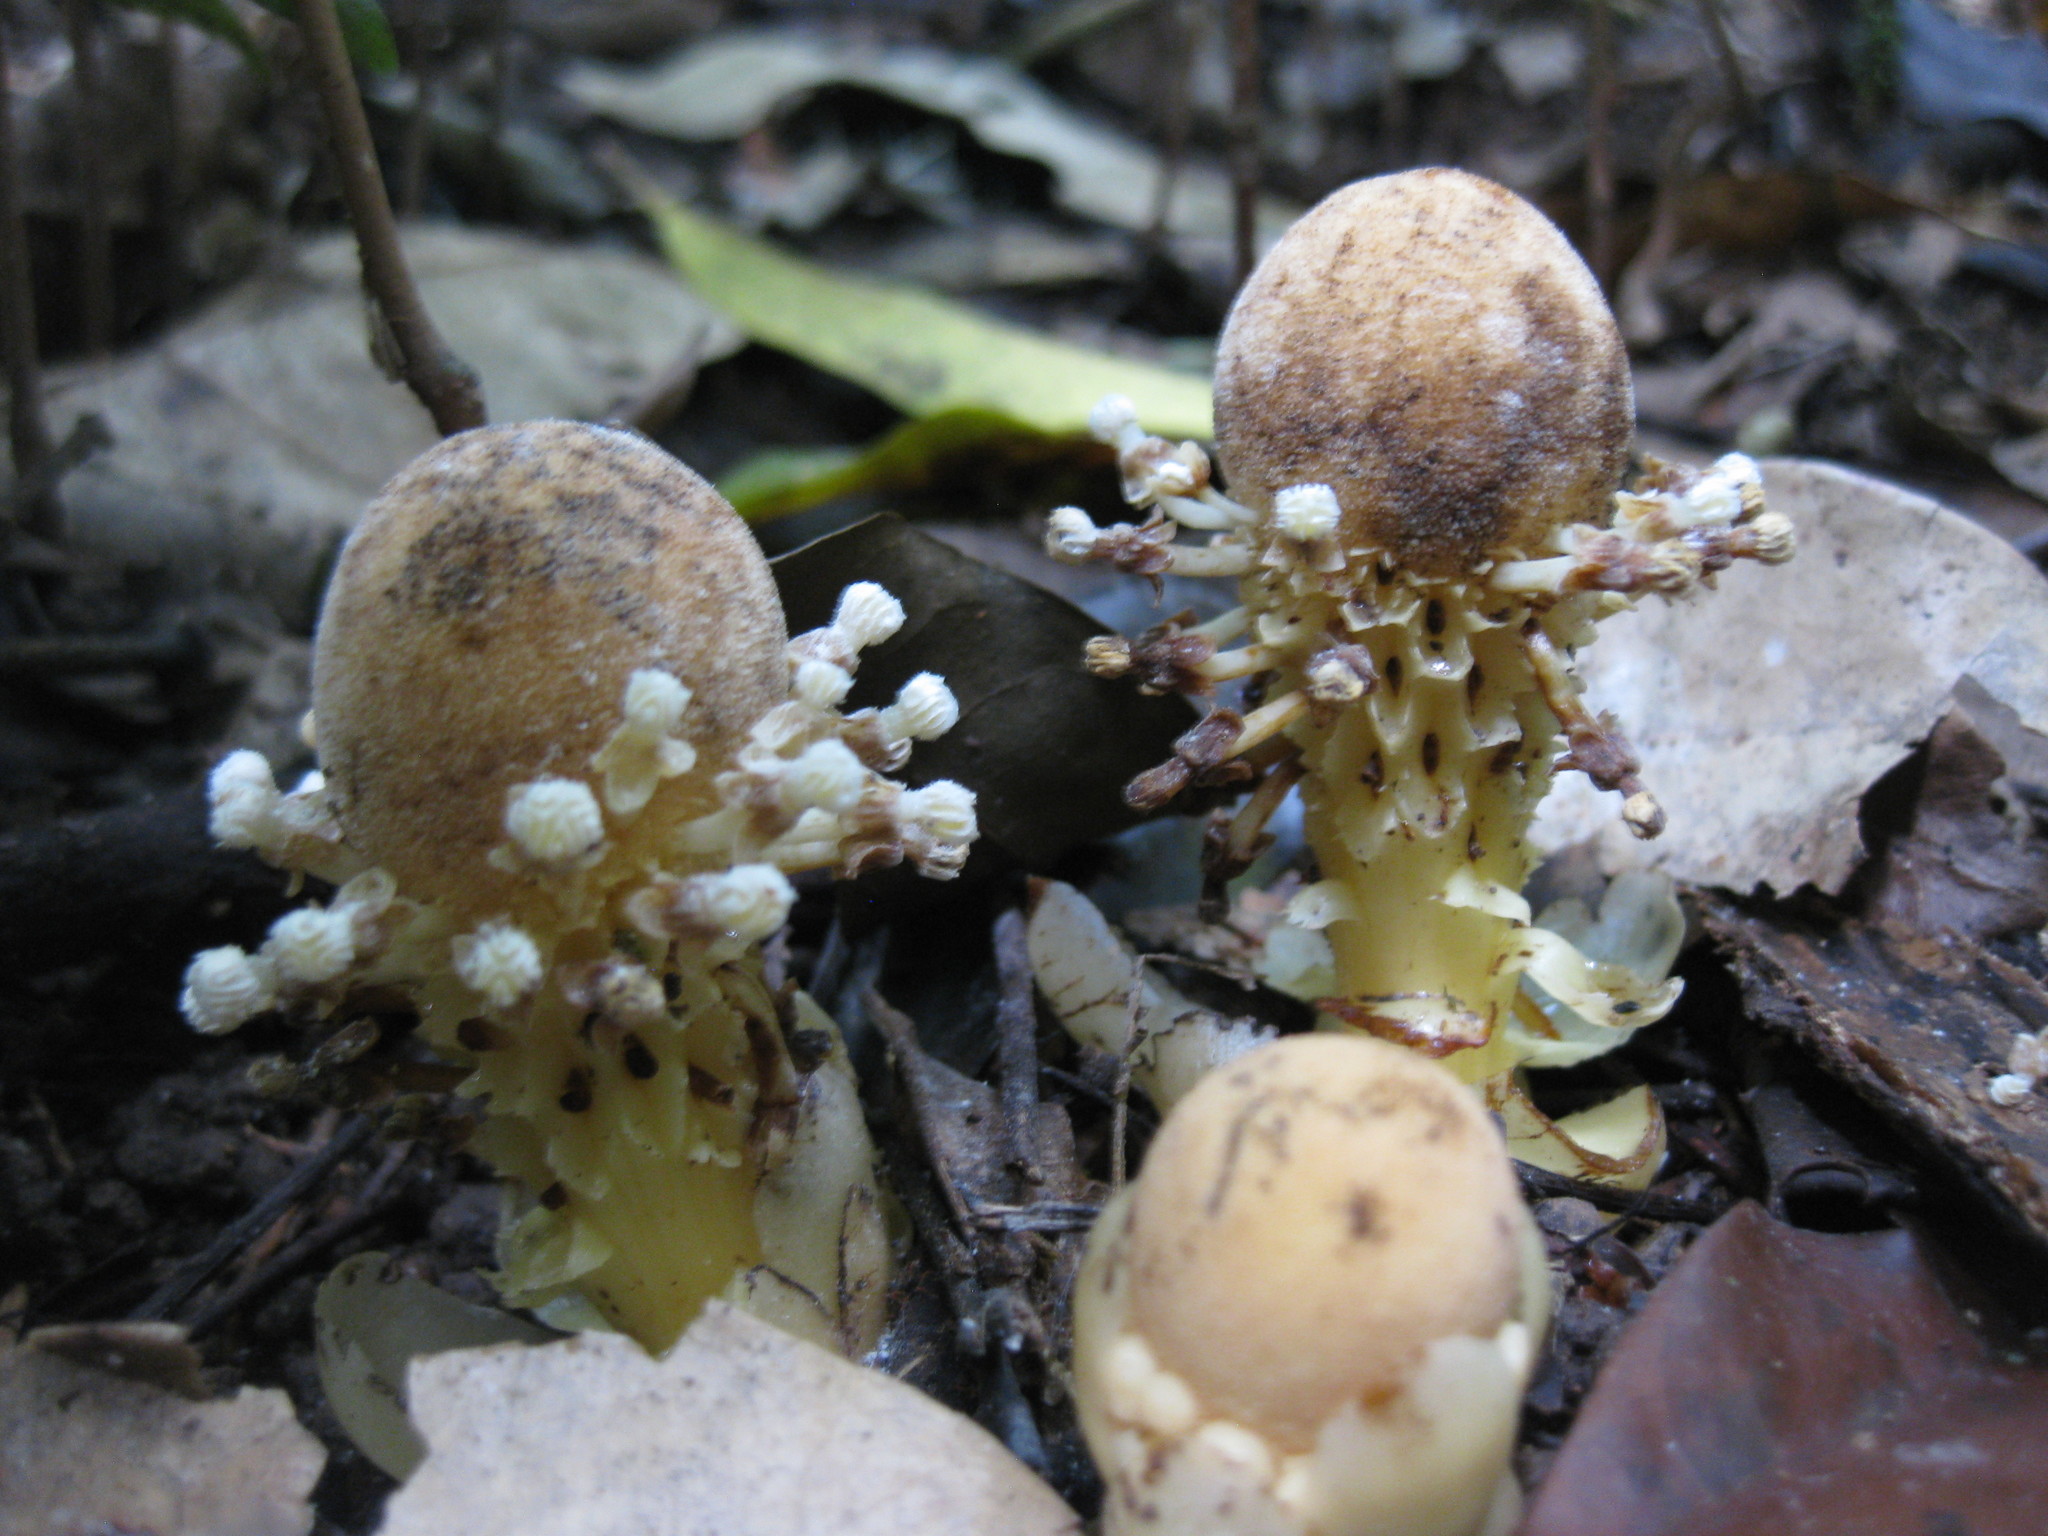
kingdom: Plantae
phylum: Tracheophyta
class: Magnoliopsida
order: Santalales
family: Balanophoraceae
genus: Balanophora
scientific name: Balanophora fungosa
